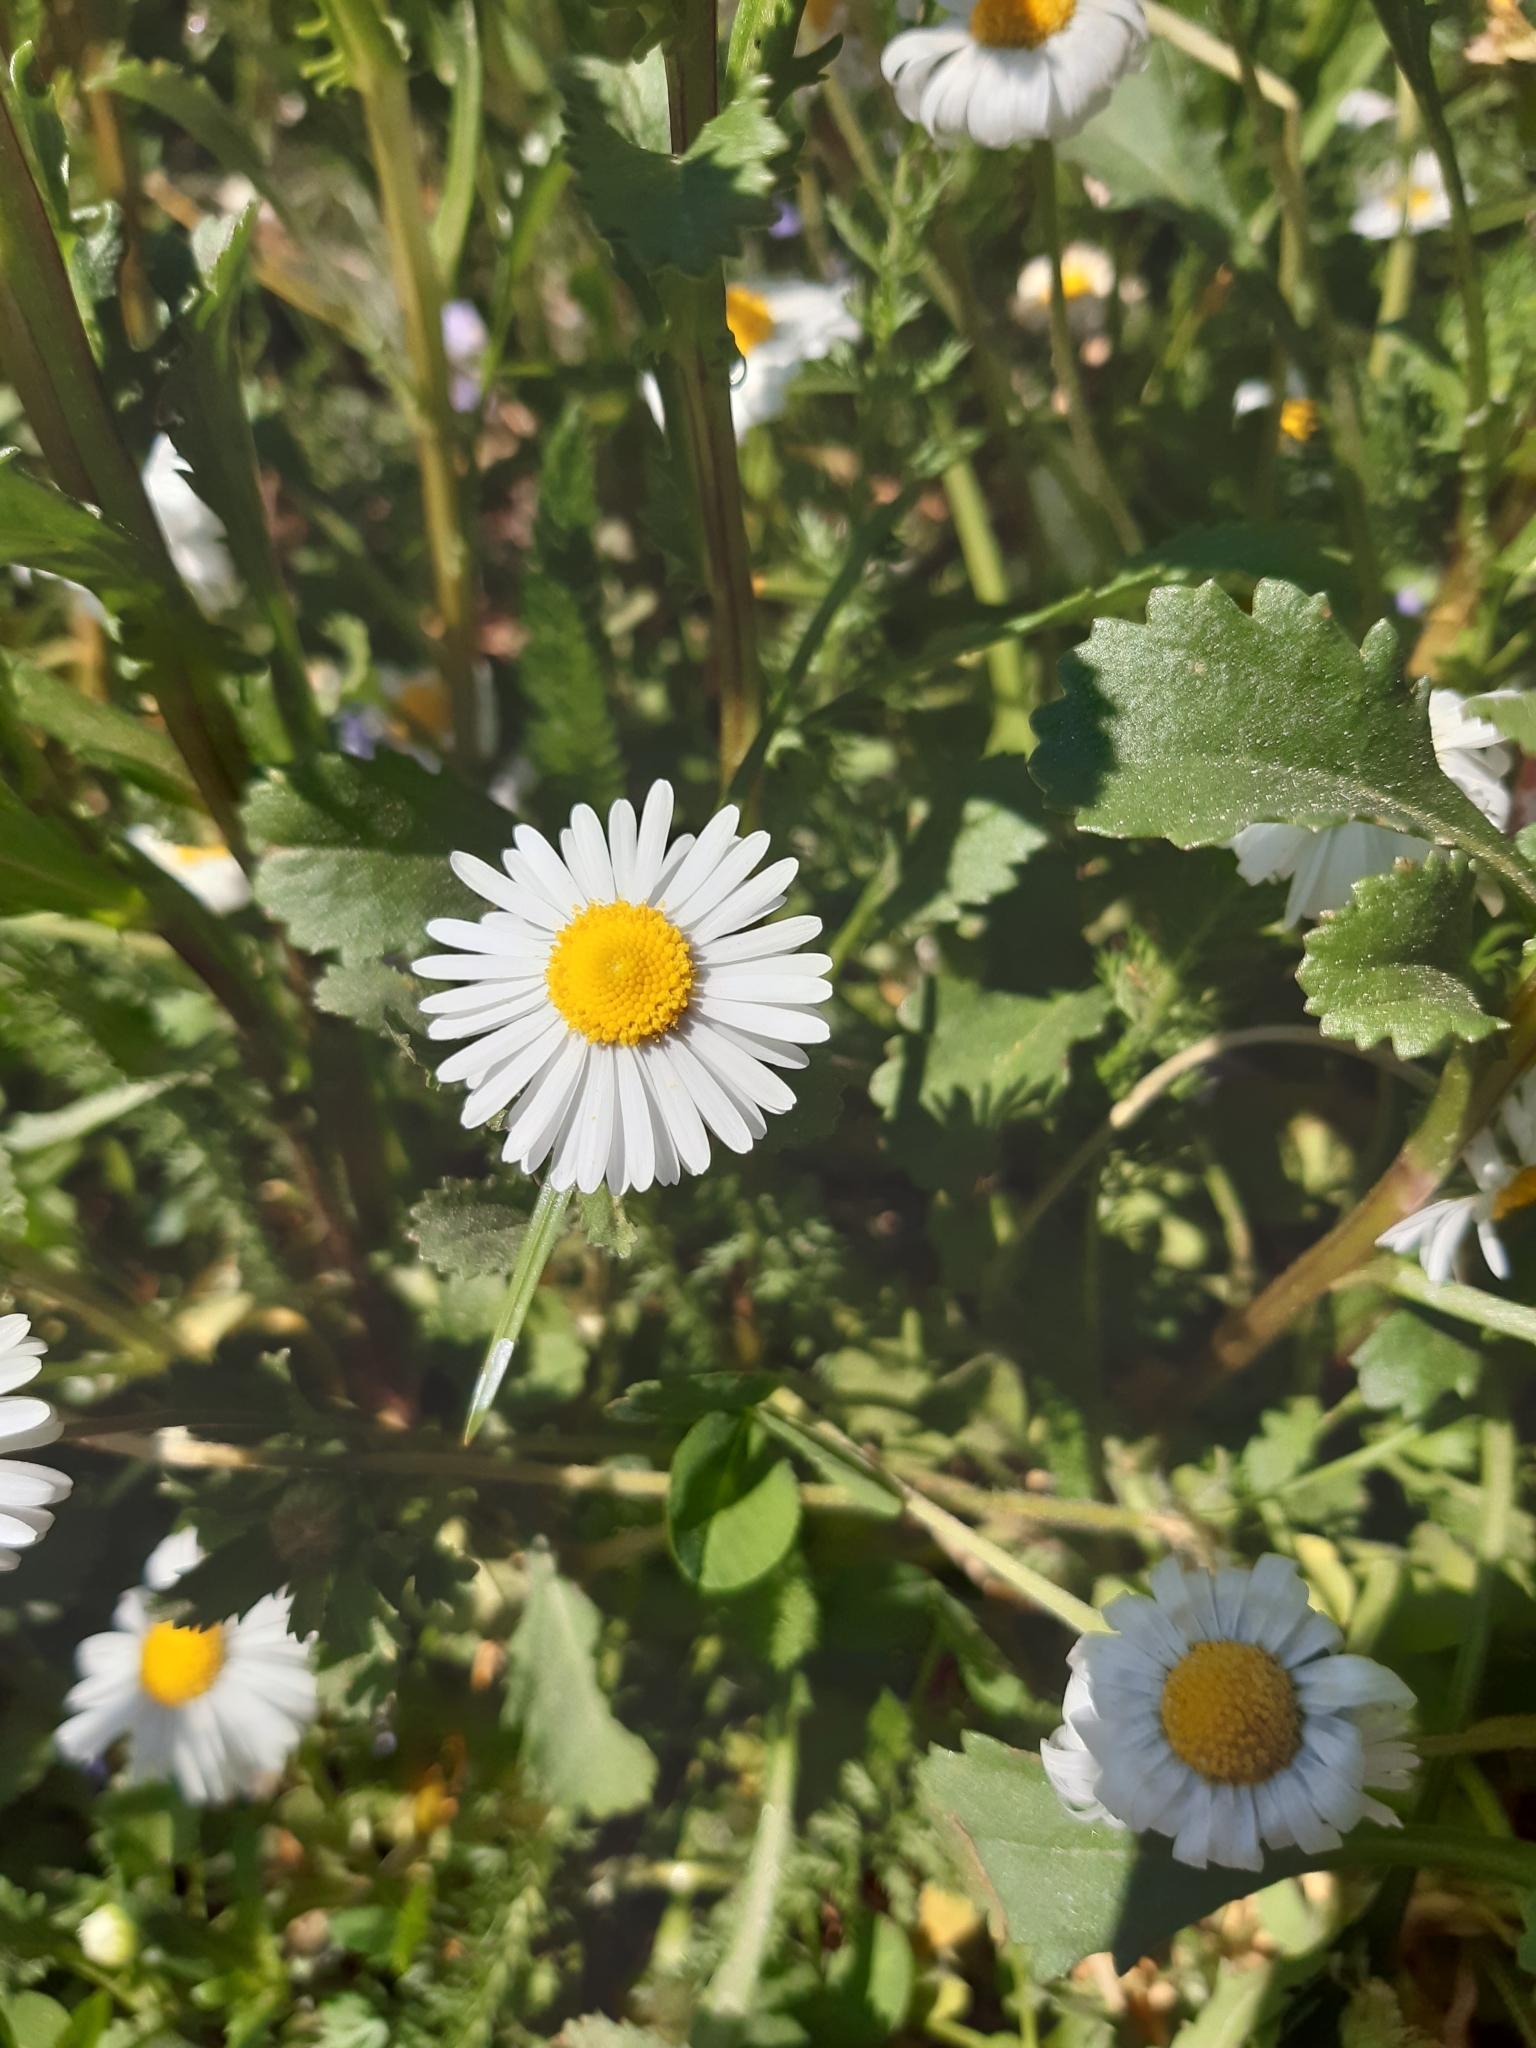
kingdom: Plantae
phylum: Tracheophyta
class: Magnoliopsida
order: Asterales
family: Asteraceae
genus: Bellis
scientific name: Bellis perennis
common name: Lawndaisy
